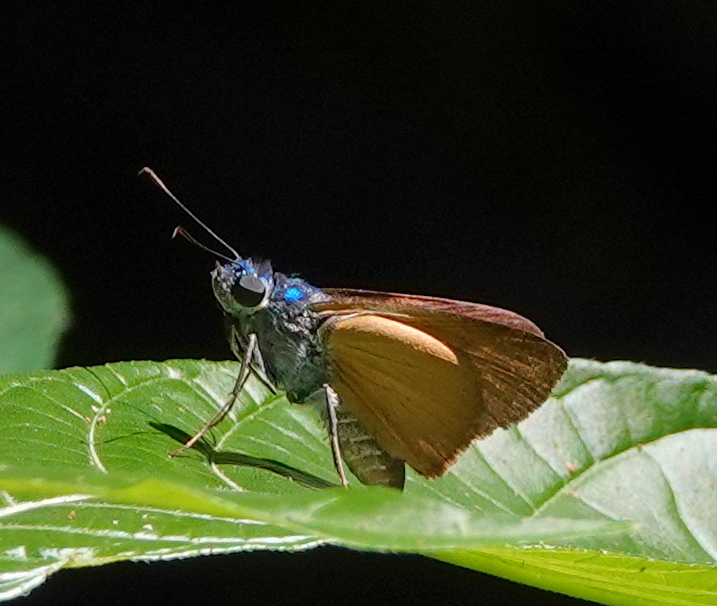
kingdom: Animalia
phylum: Arthropoda
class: Insecta
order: Lepidoptera
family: Hesperiidae
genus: Onophas
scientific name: Onophas columbaria
